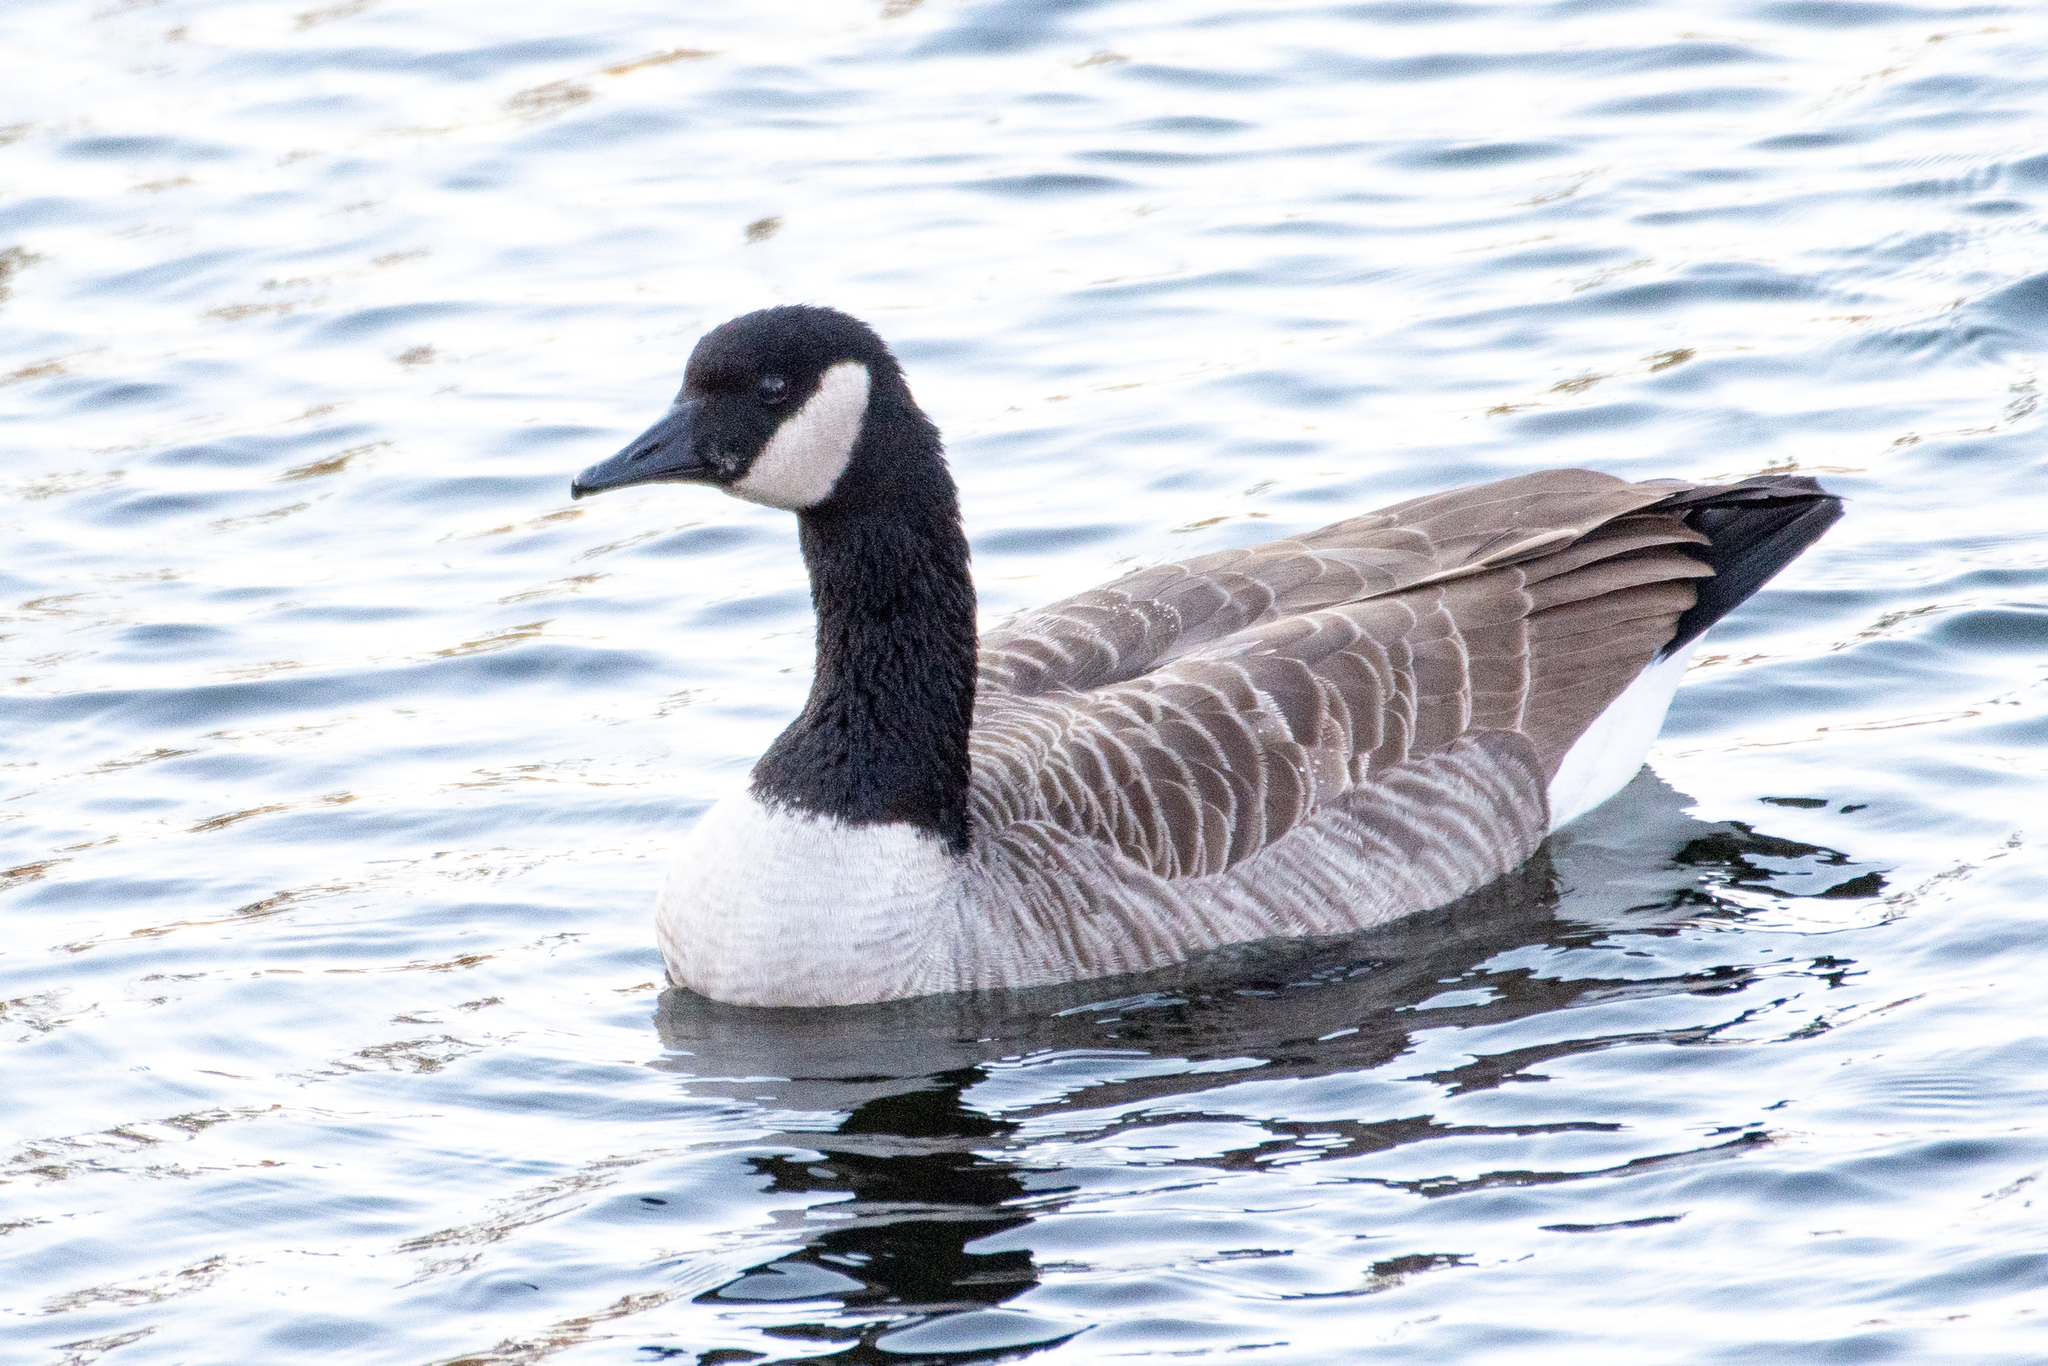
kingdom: Animalia
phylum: Chordata
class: Aves
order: Anseriformes
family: Anatidae
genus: Branta
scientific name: Branta canadensis
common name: Canada goose
